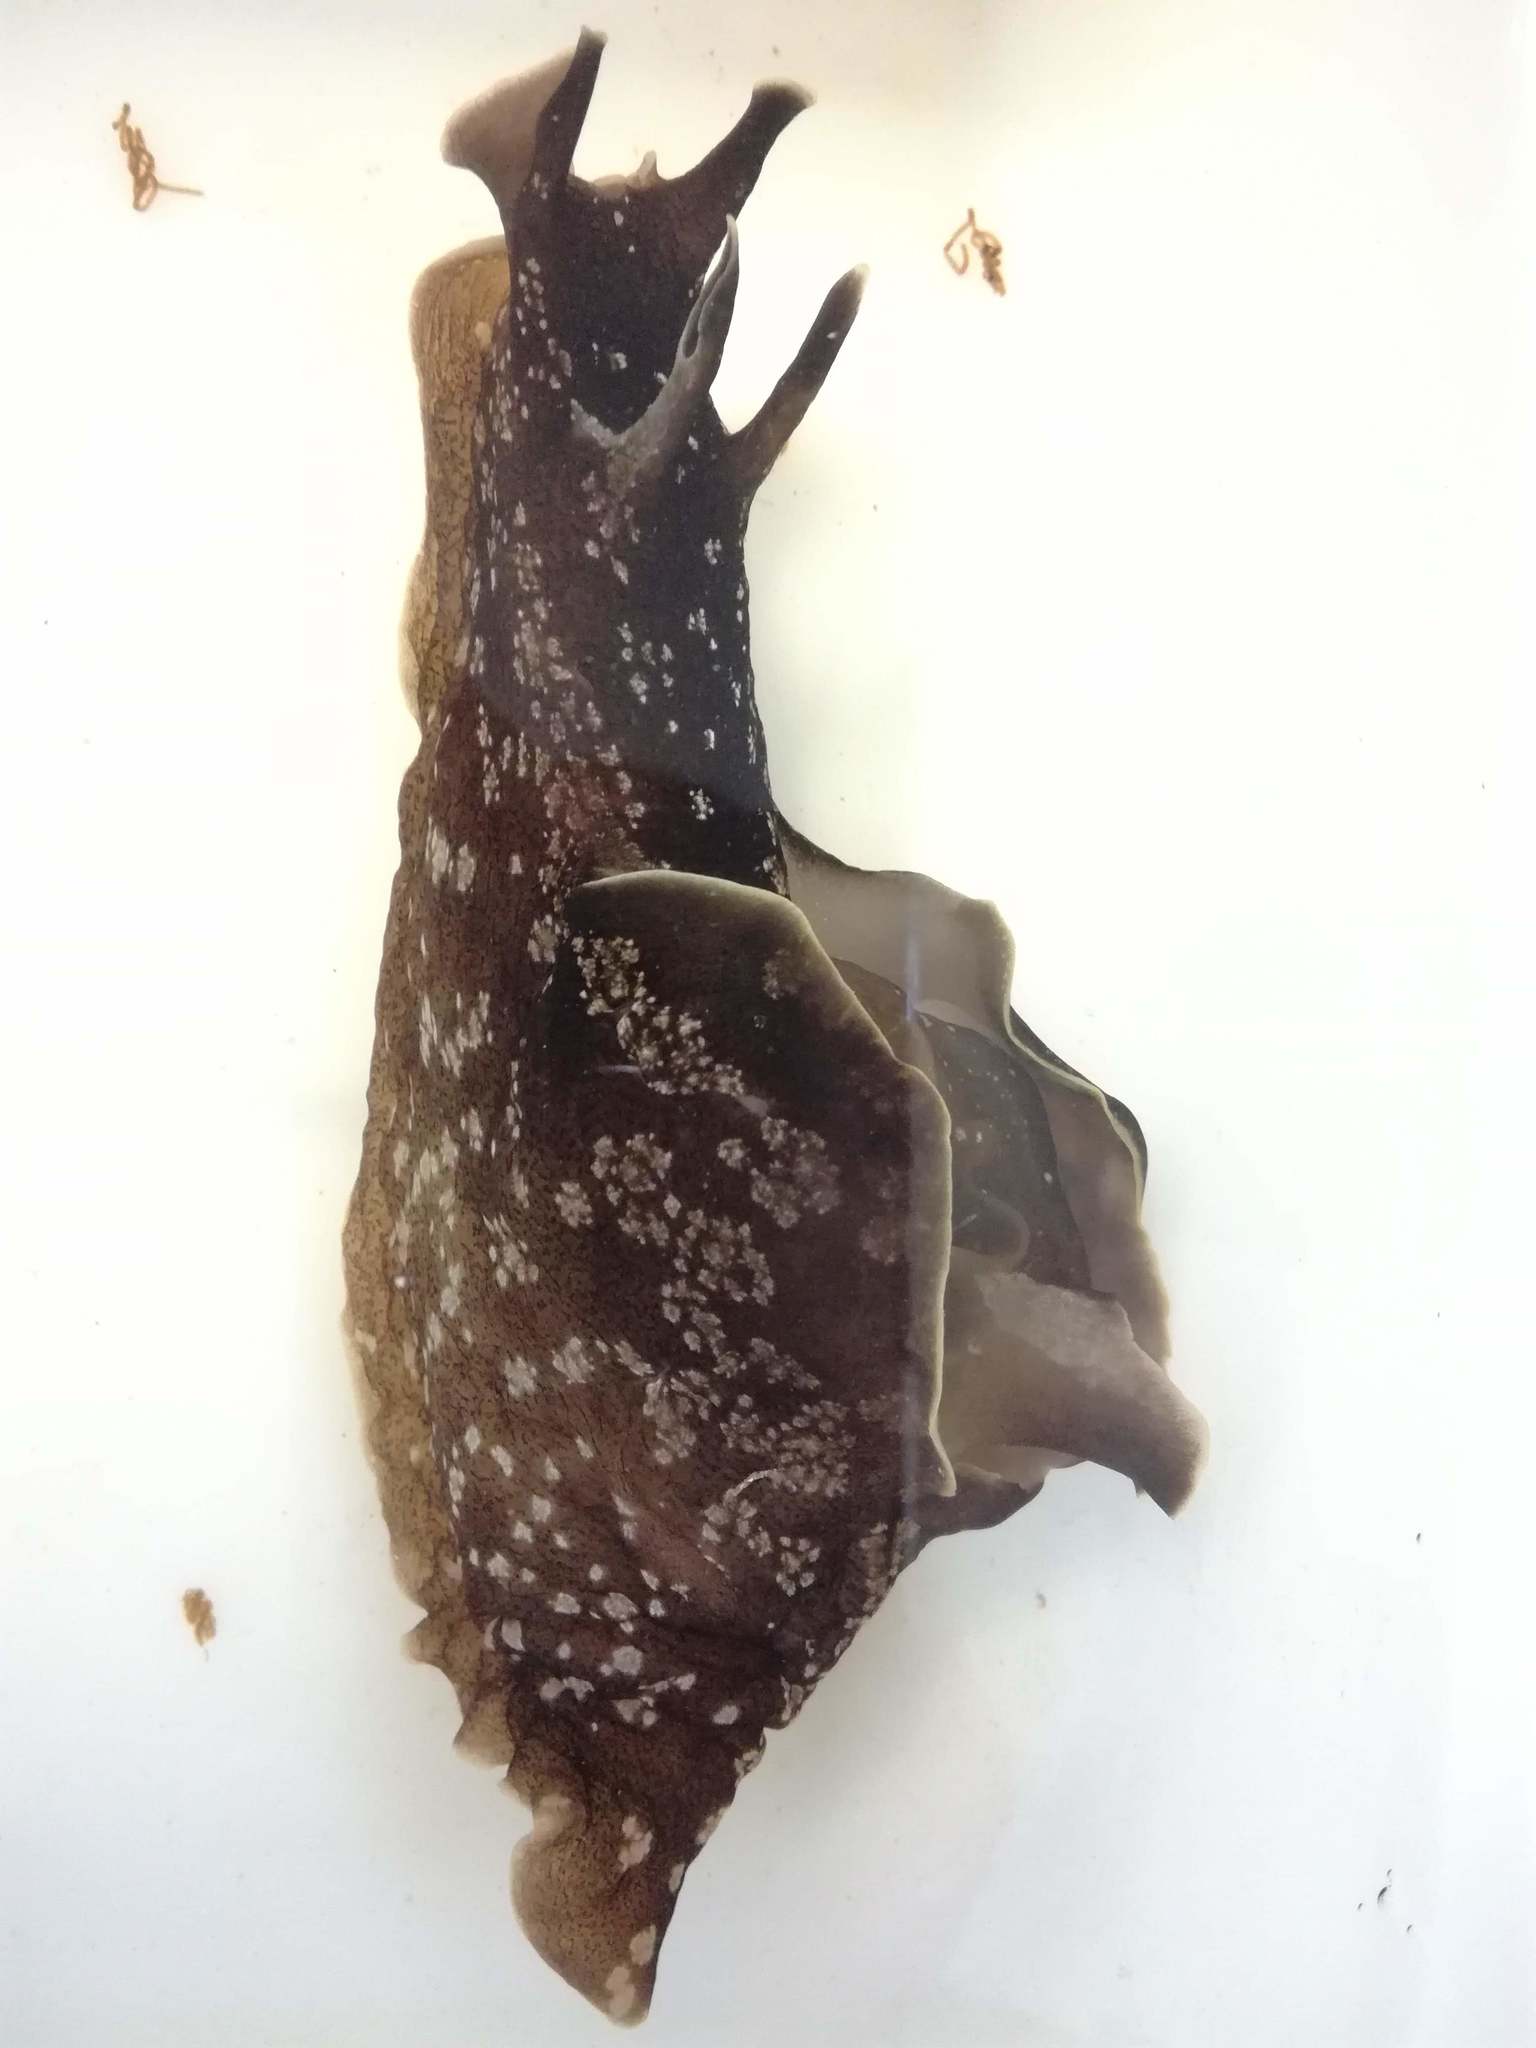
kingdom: Animalia
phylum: Mollusca
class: Gastropoda
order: Aplysiida
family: Aplysiidae
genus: Aplysia
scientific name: Aplysia punctata
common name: Common sea hare
